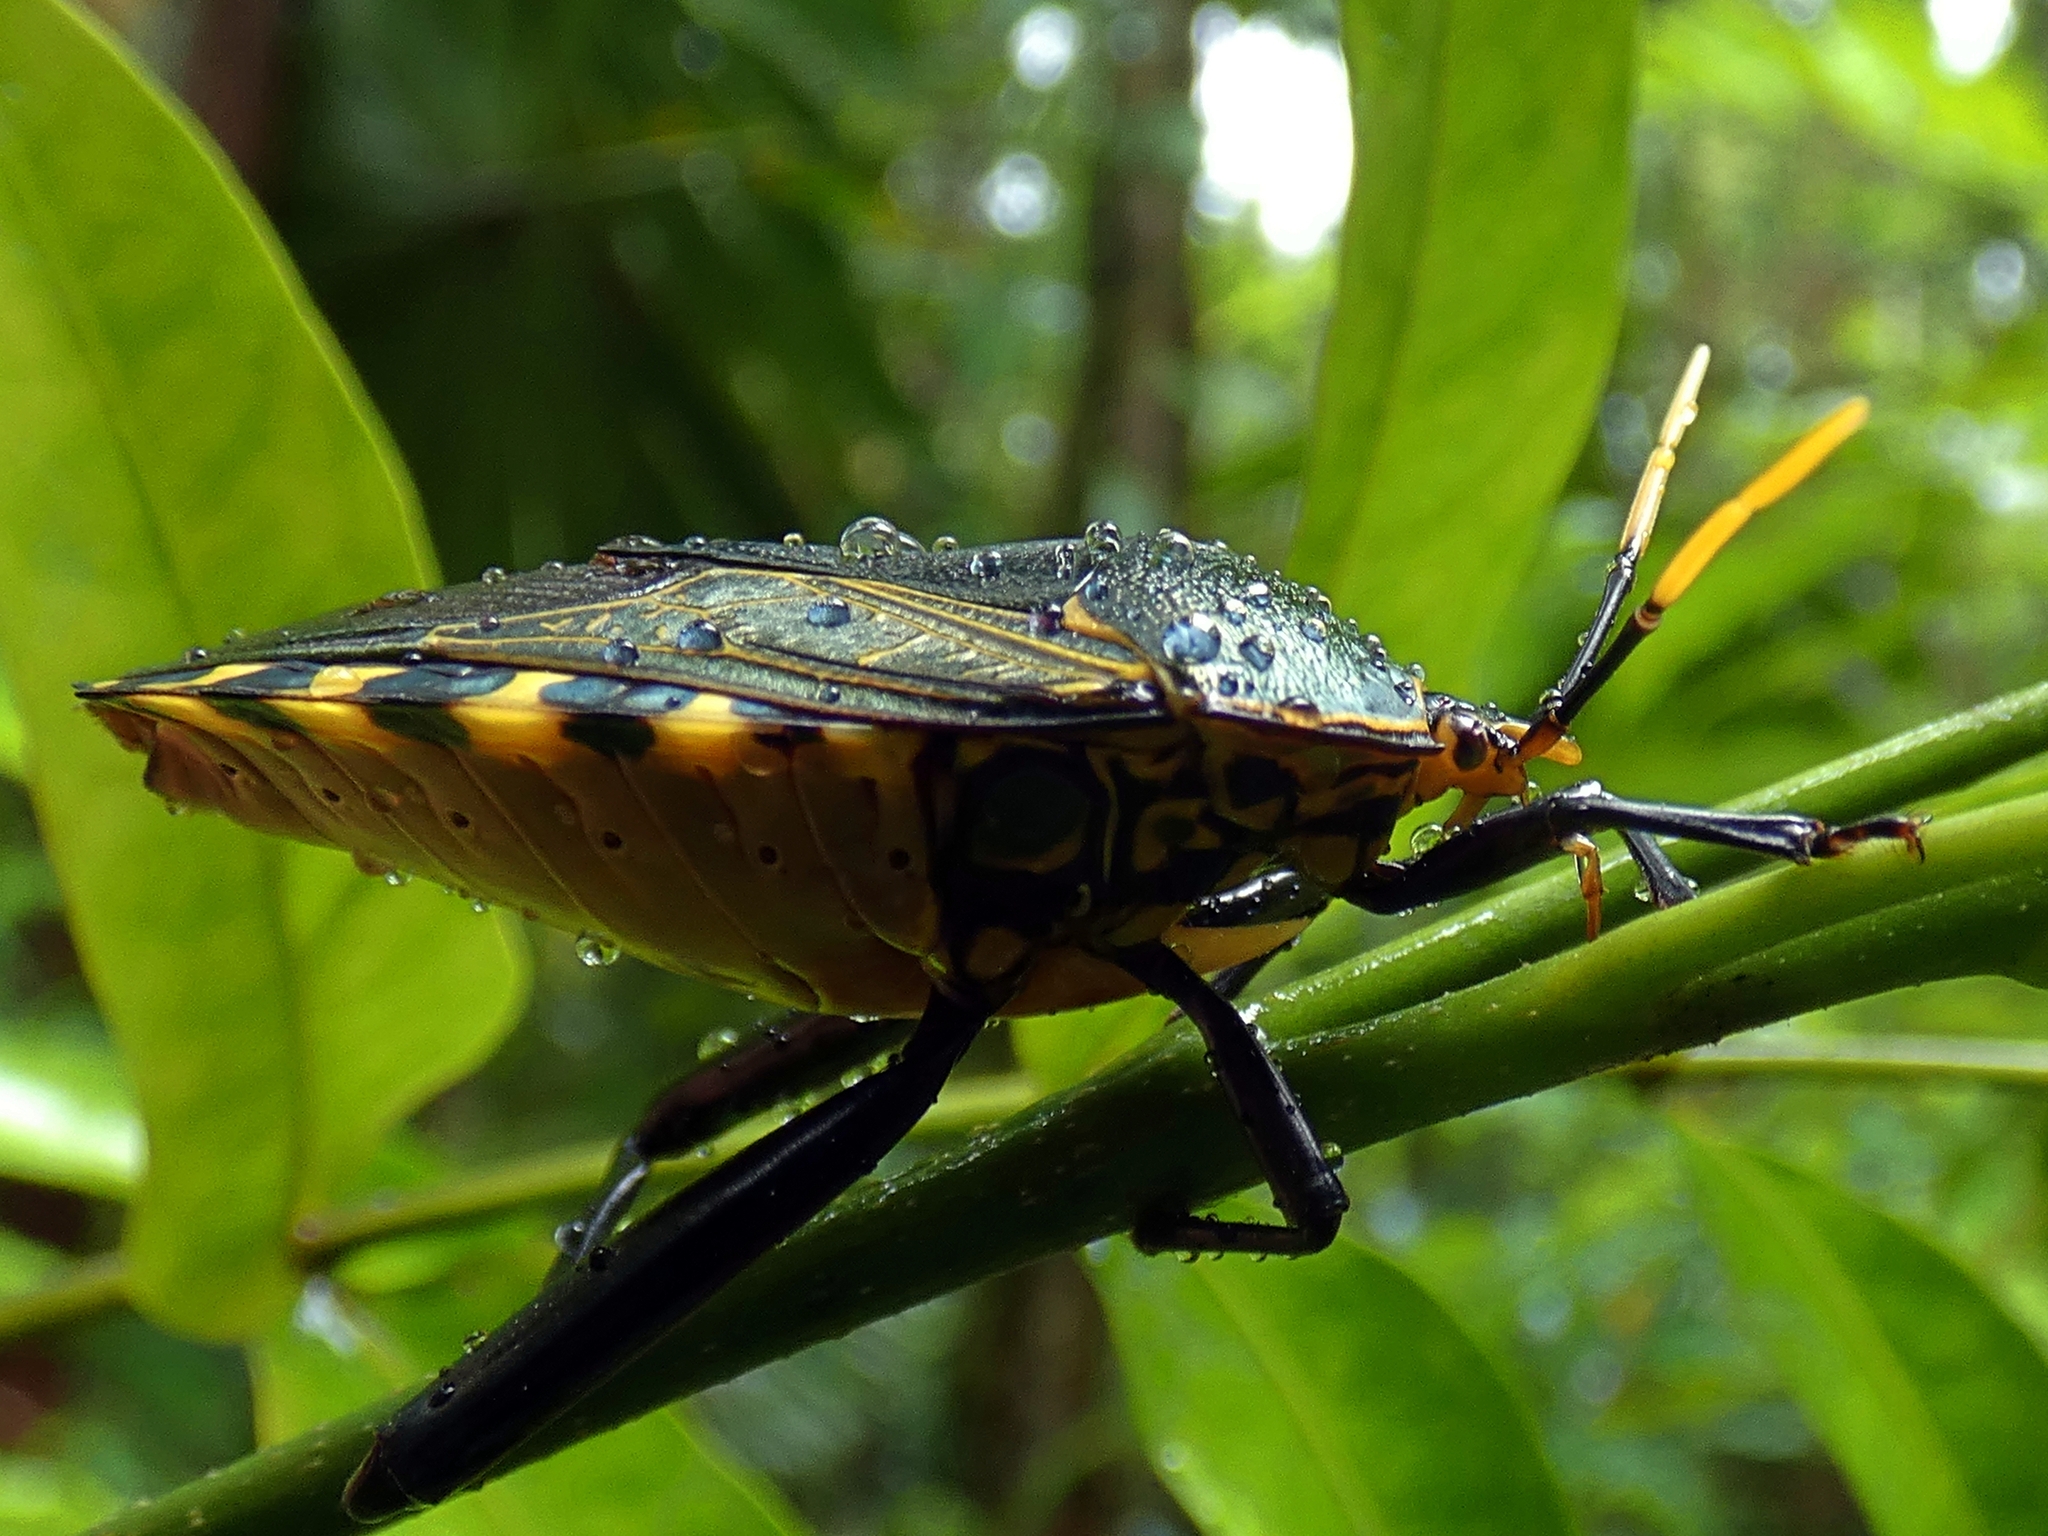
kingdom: Animalia
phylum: Arthropoda
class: Insecta
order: Hemiptera
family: Tessaratomidae
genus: Plisthenes
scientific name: Plisthenes australis
